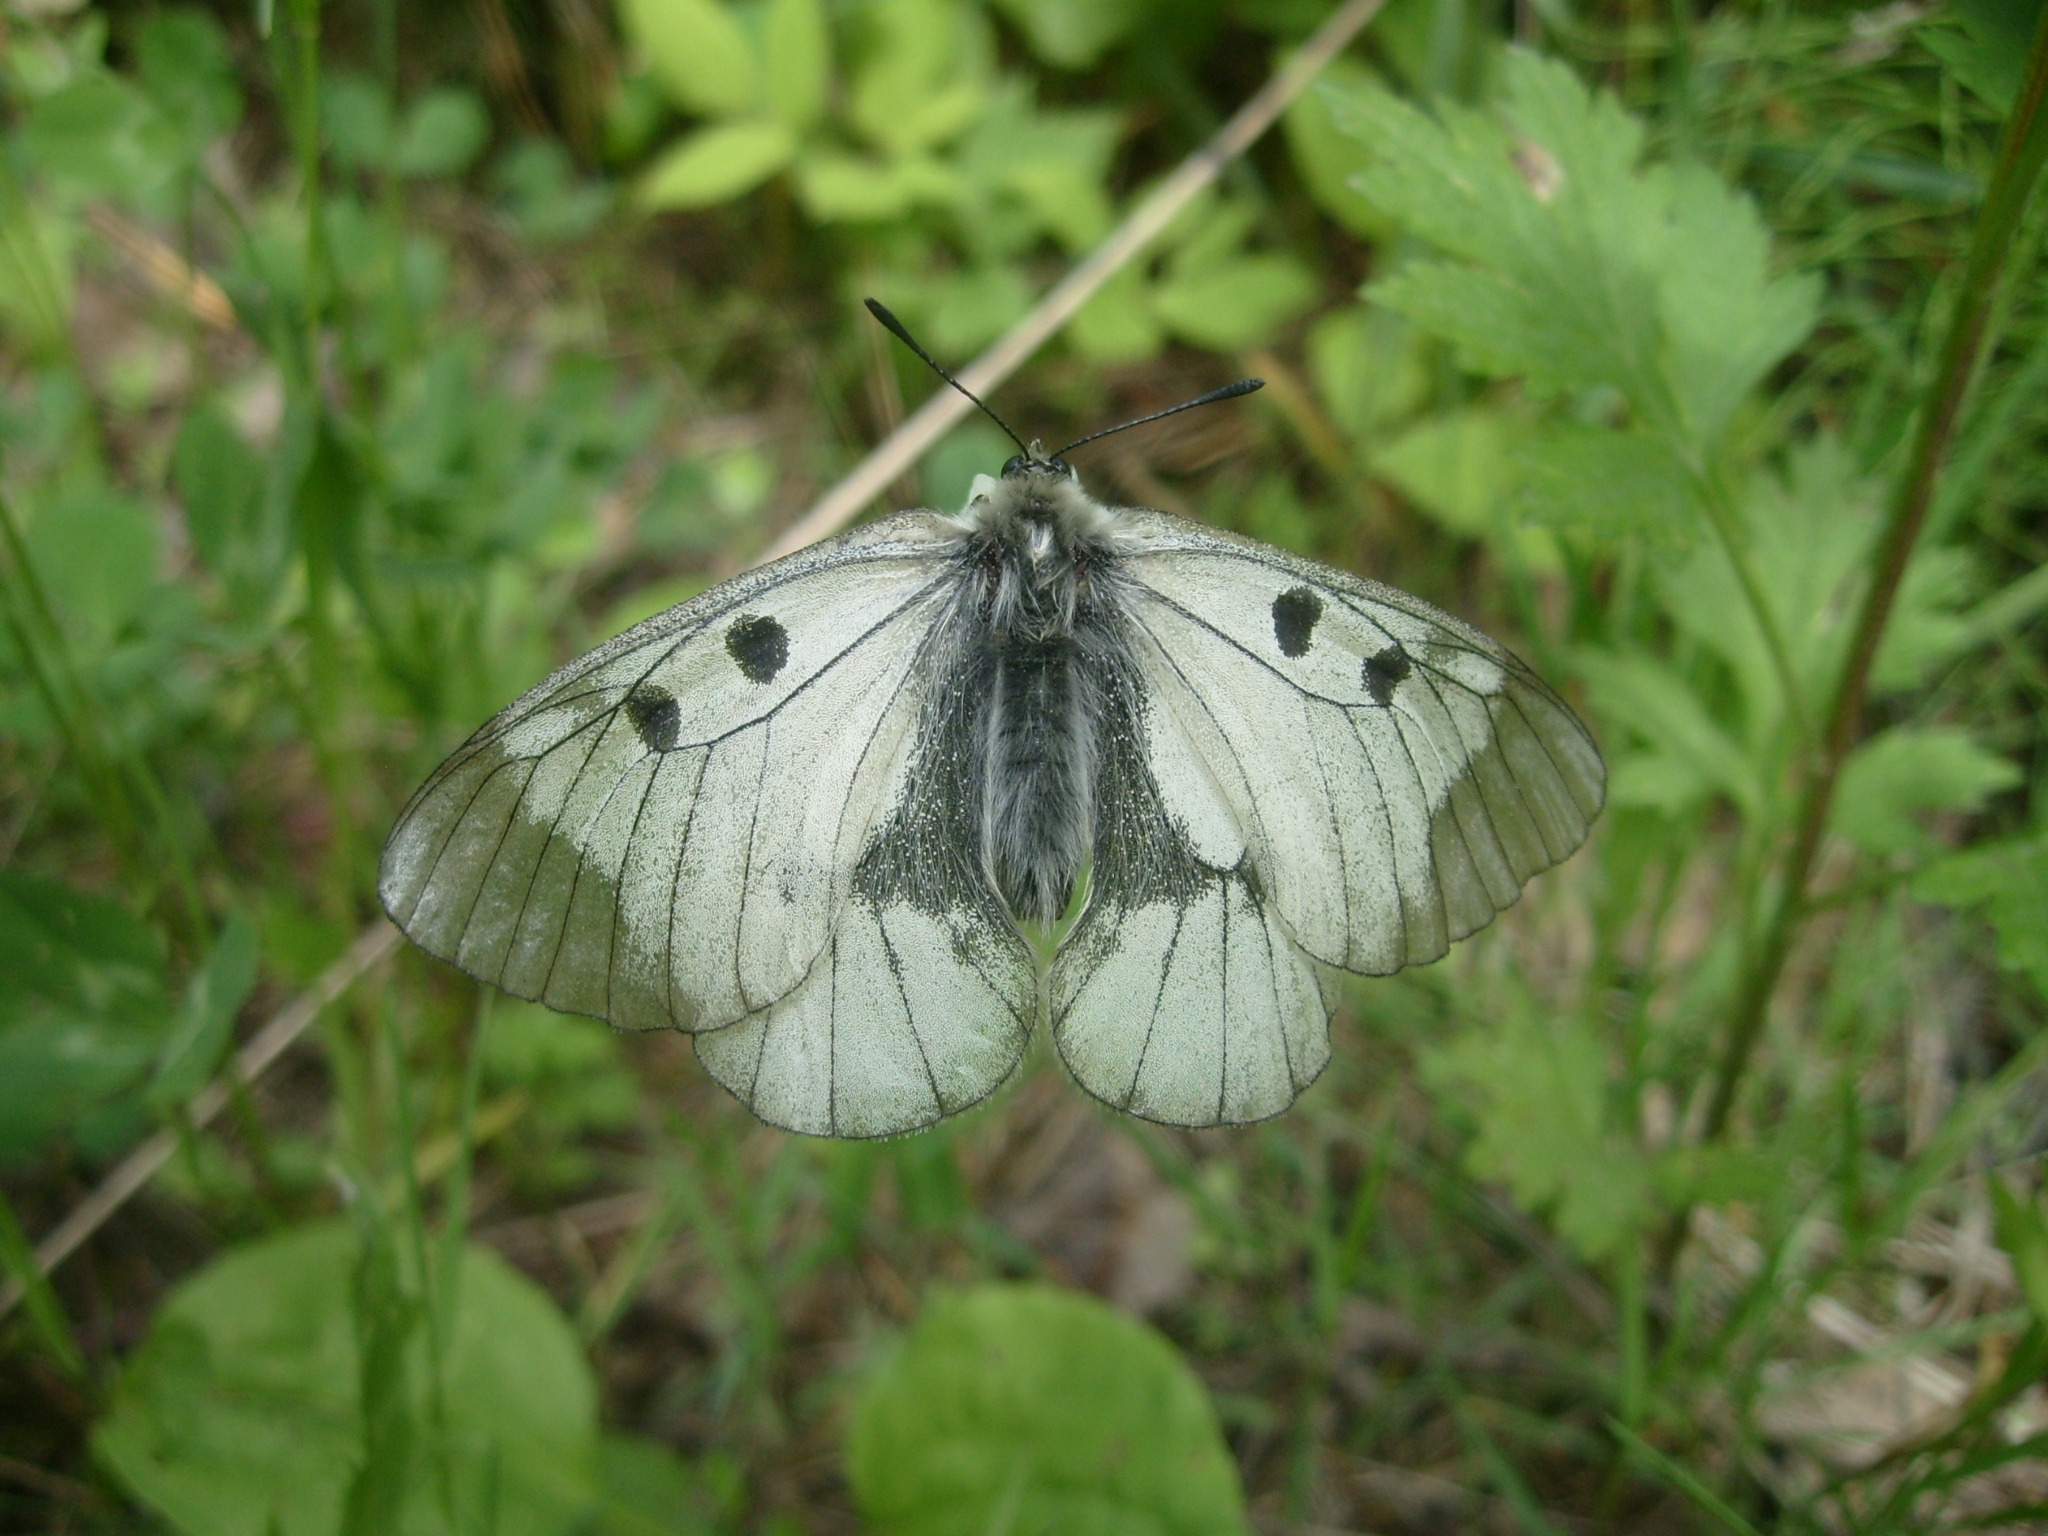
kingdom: Animalia
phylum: Arthropoda
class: Insecta
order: Lepidoptera
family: Papilionidae
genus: Parnassius
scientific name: Parnassius mnemosyne
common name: Clouded apollo
